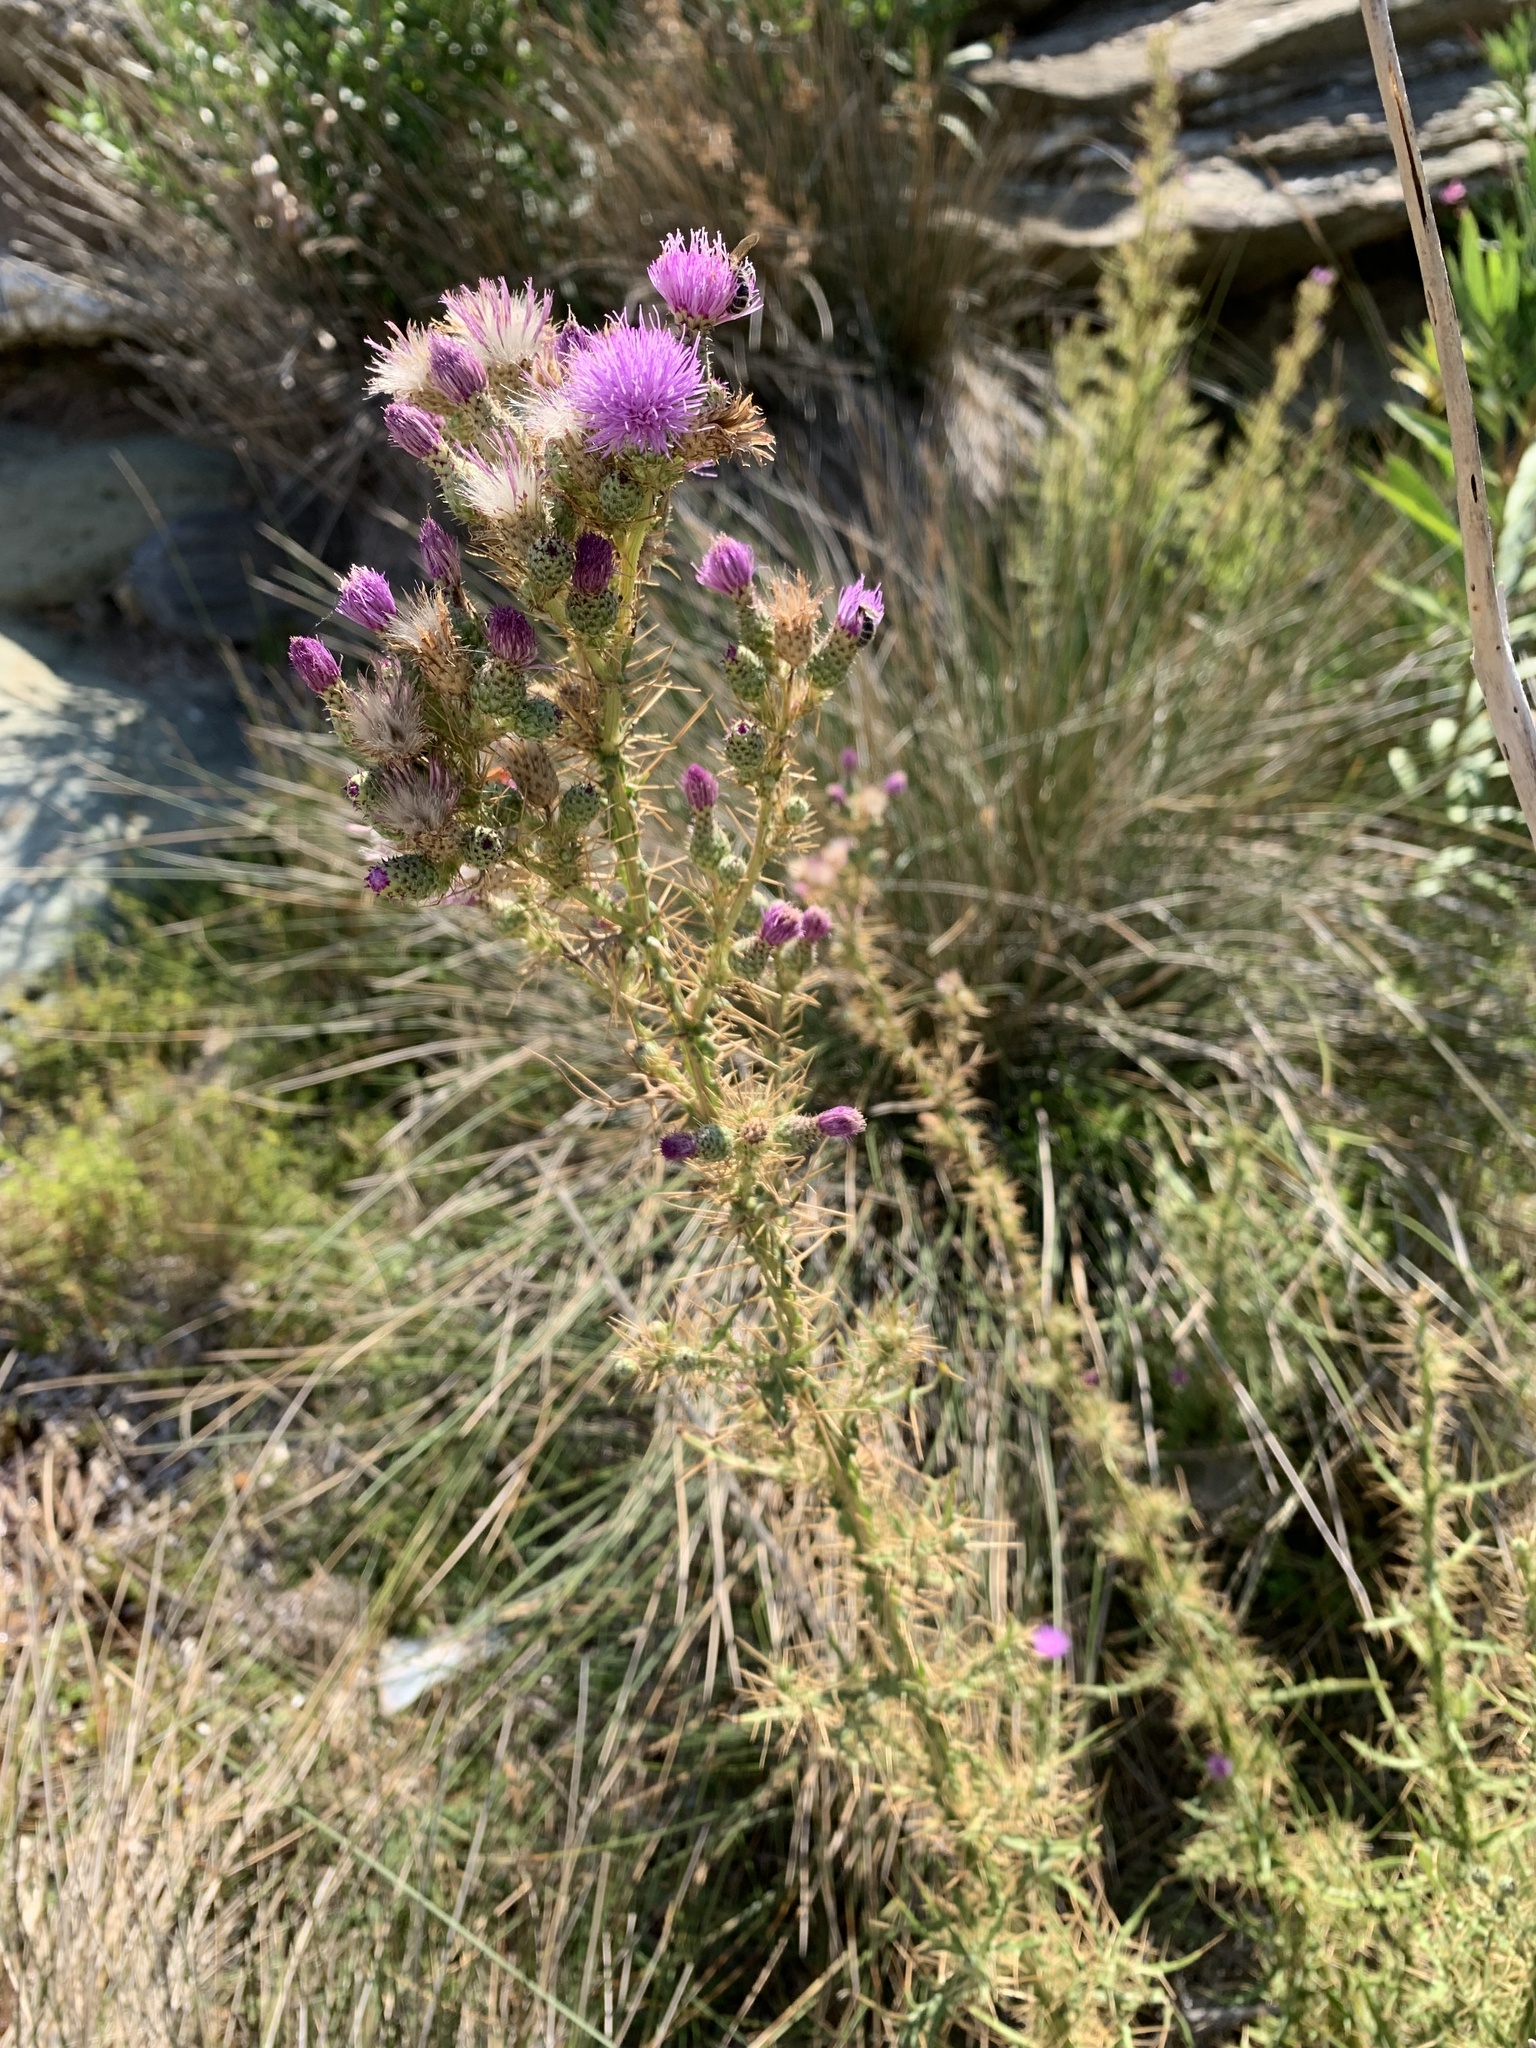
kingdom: Plantae
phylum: Tracheophyta
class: Magnoliopsida
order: Asterales
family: Asteraceae
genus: Cirsium
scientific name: Cirsium creticum
